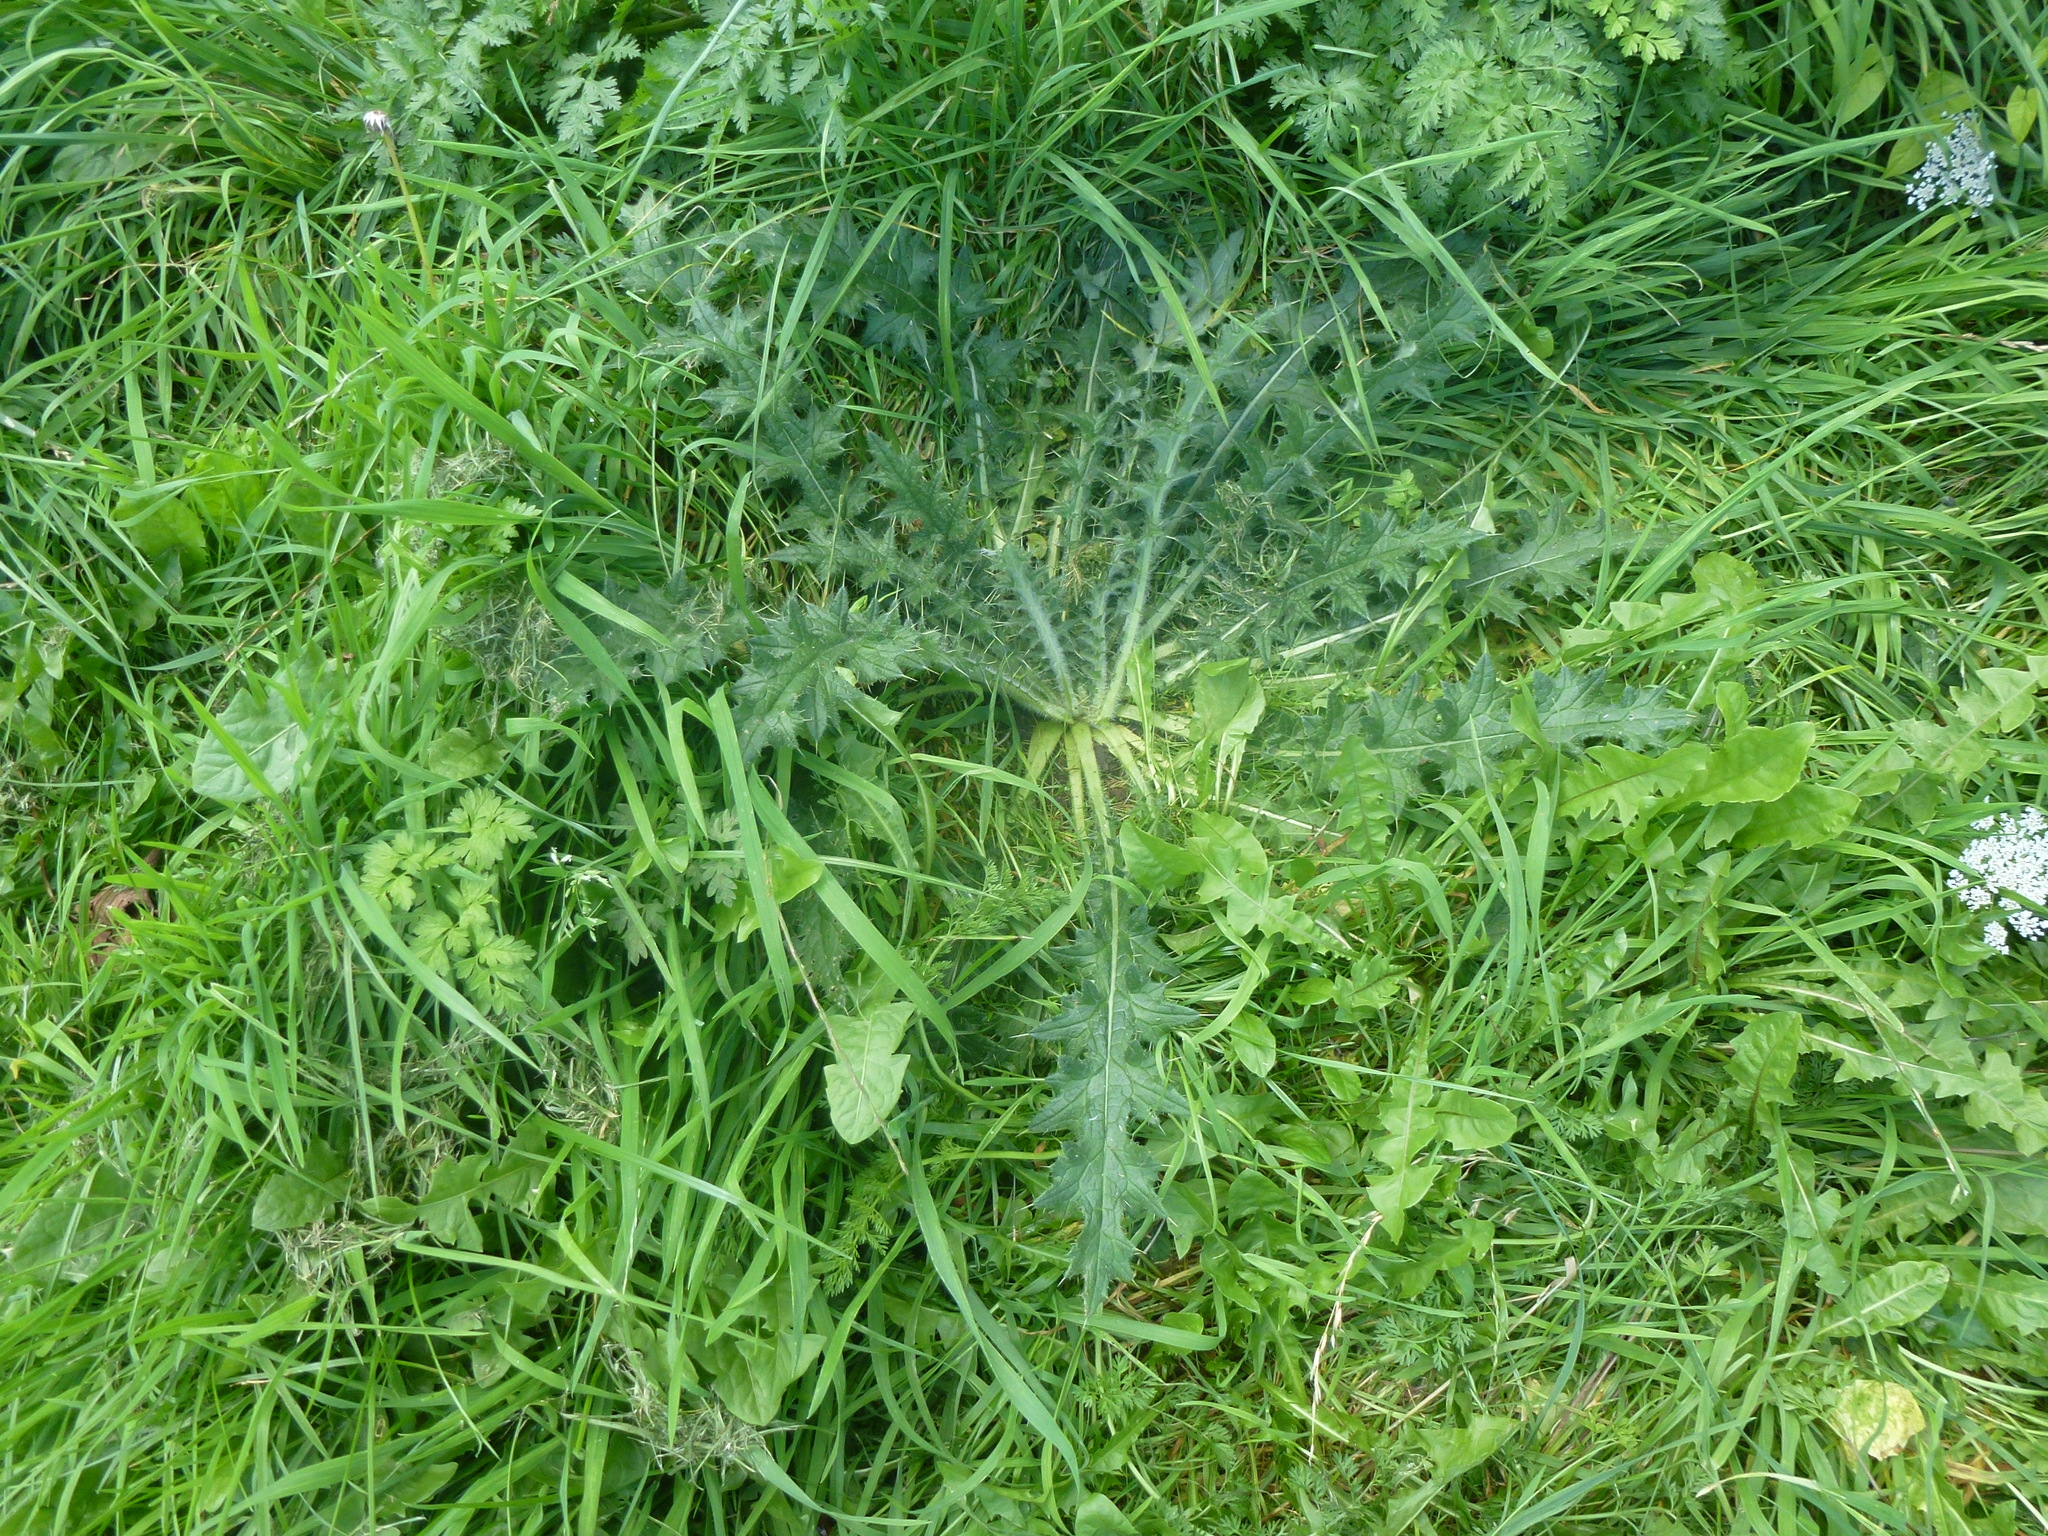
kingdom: Plantae
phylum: Tracheophyta
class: Magnoliopsida
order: Asterales
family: Asteraceae
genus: Cirsium
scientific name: Cirsium vulgare
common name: Bull thistle
